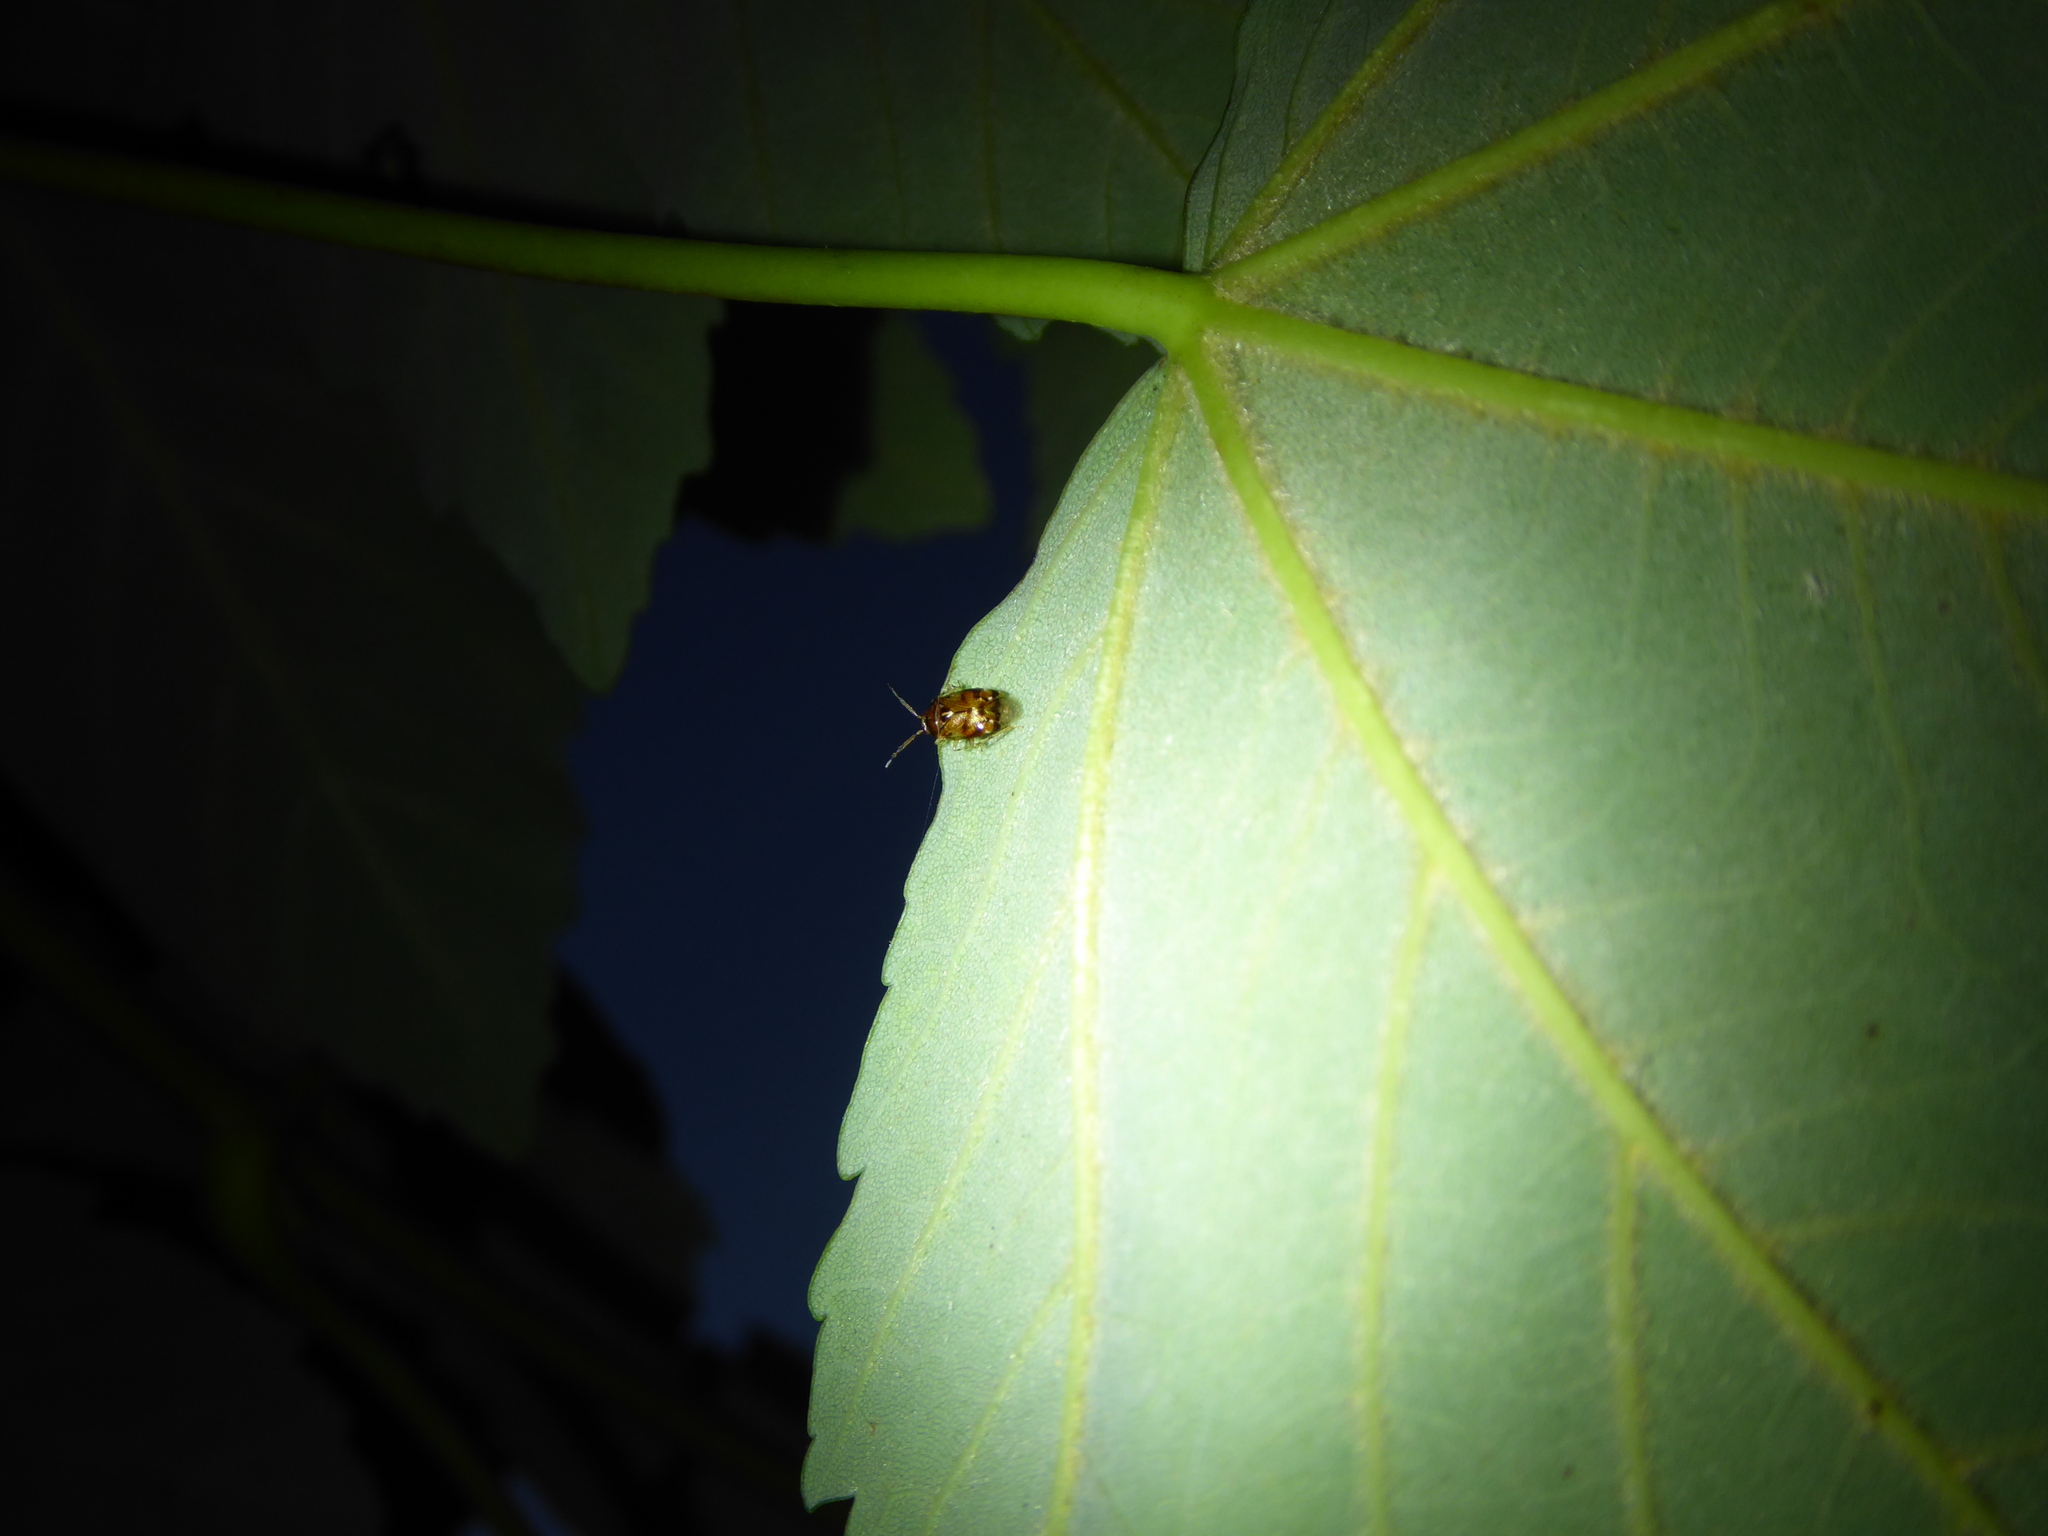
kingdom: Animalia
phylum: Arthropoda
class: Insecta
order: Hemiptera
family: Miridae
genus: Deraeocoris
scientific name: Deraeocoris lutescens
